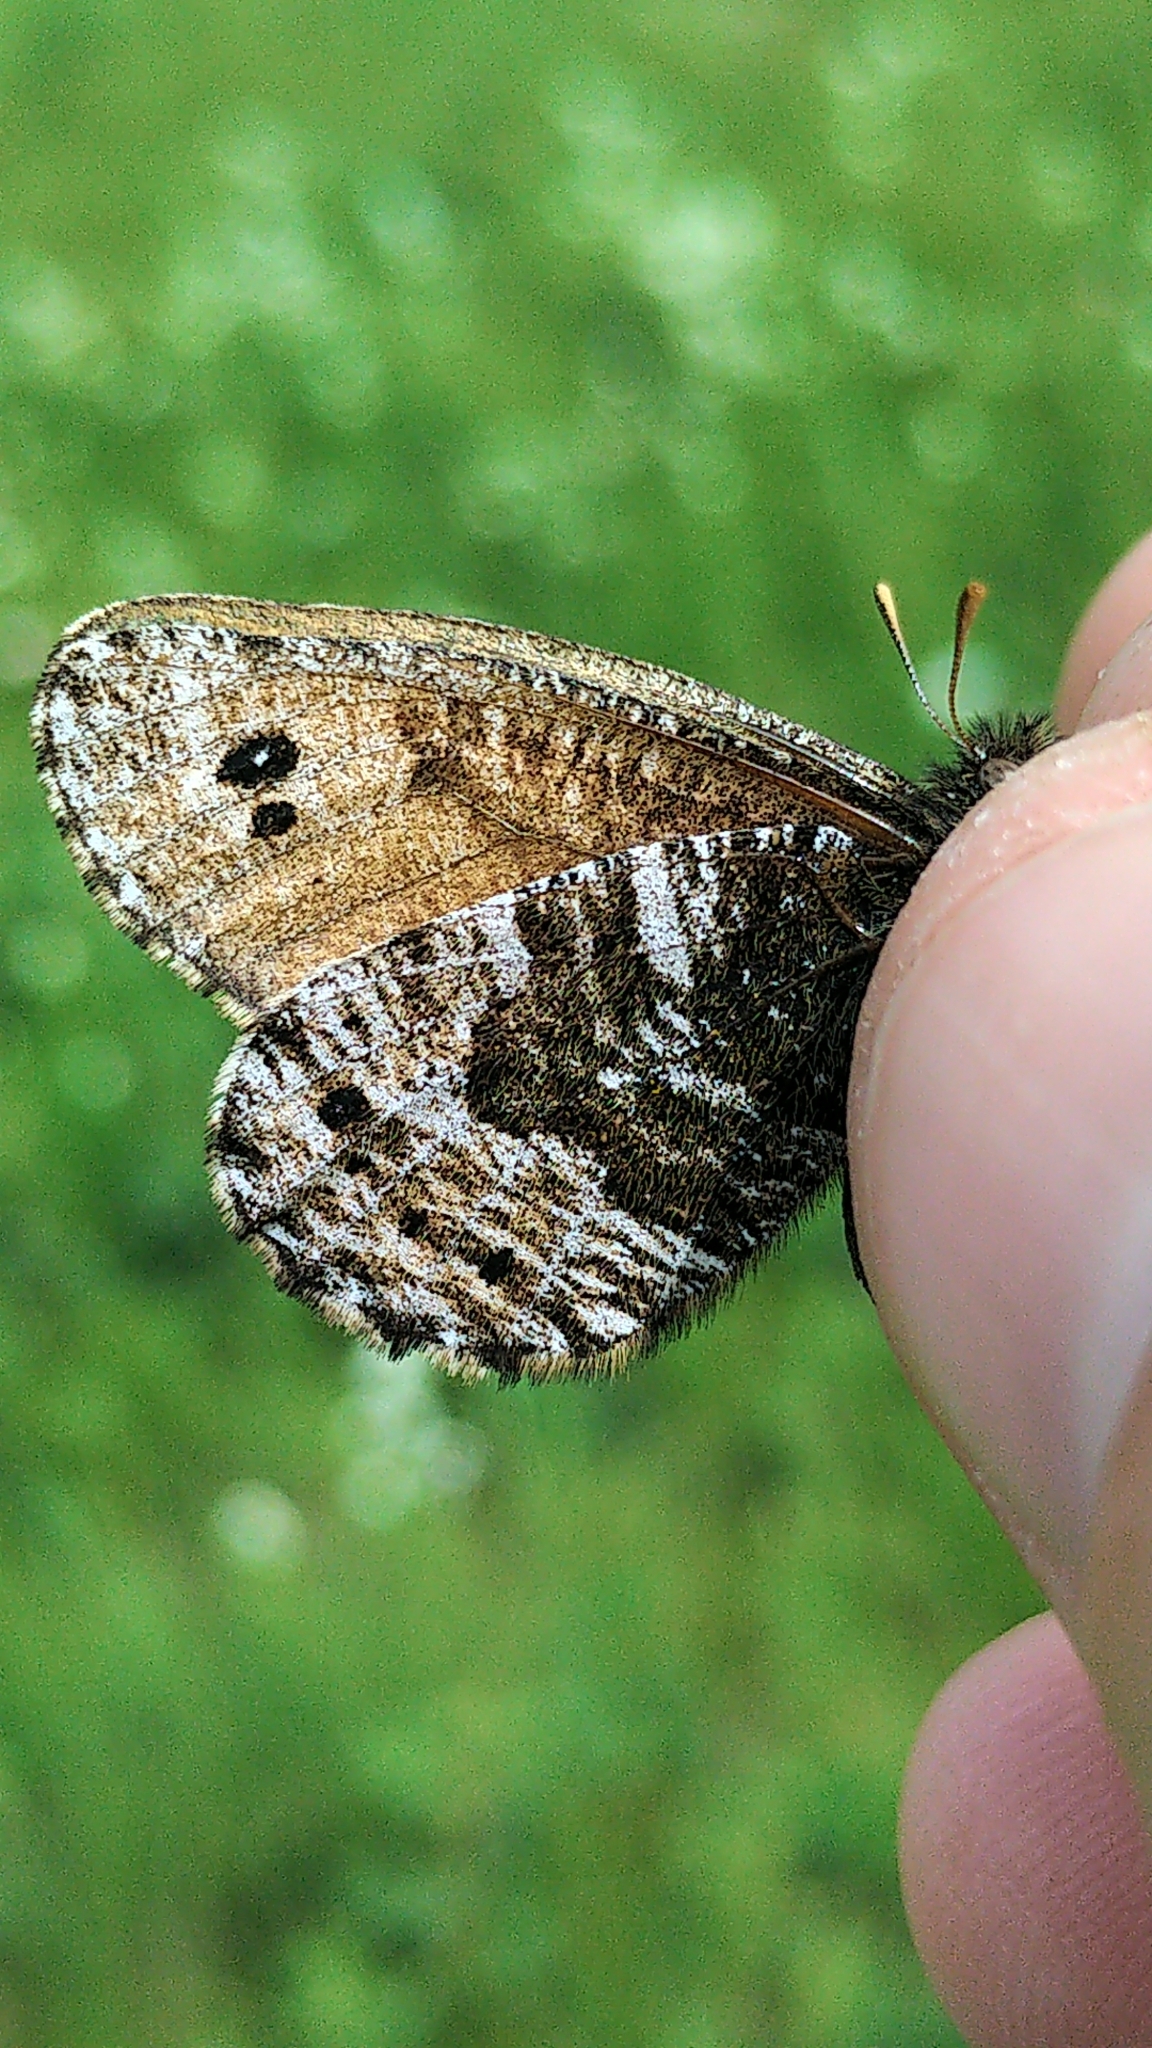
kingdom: Animalia
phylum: Arthropoda
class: Insecta
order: Lepidoptera
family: Nymphalidae
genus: Oeneis
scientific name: Oeneis uhleri
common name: Uhler's arctic
